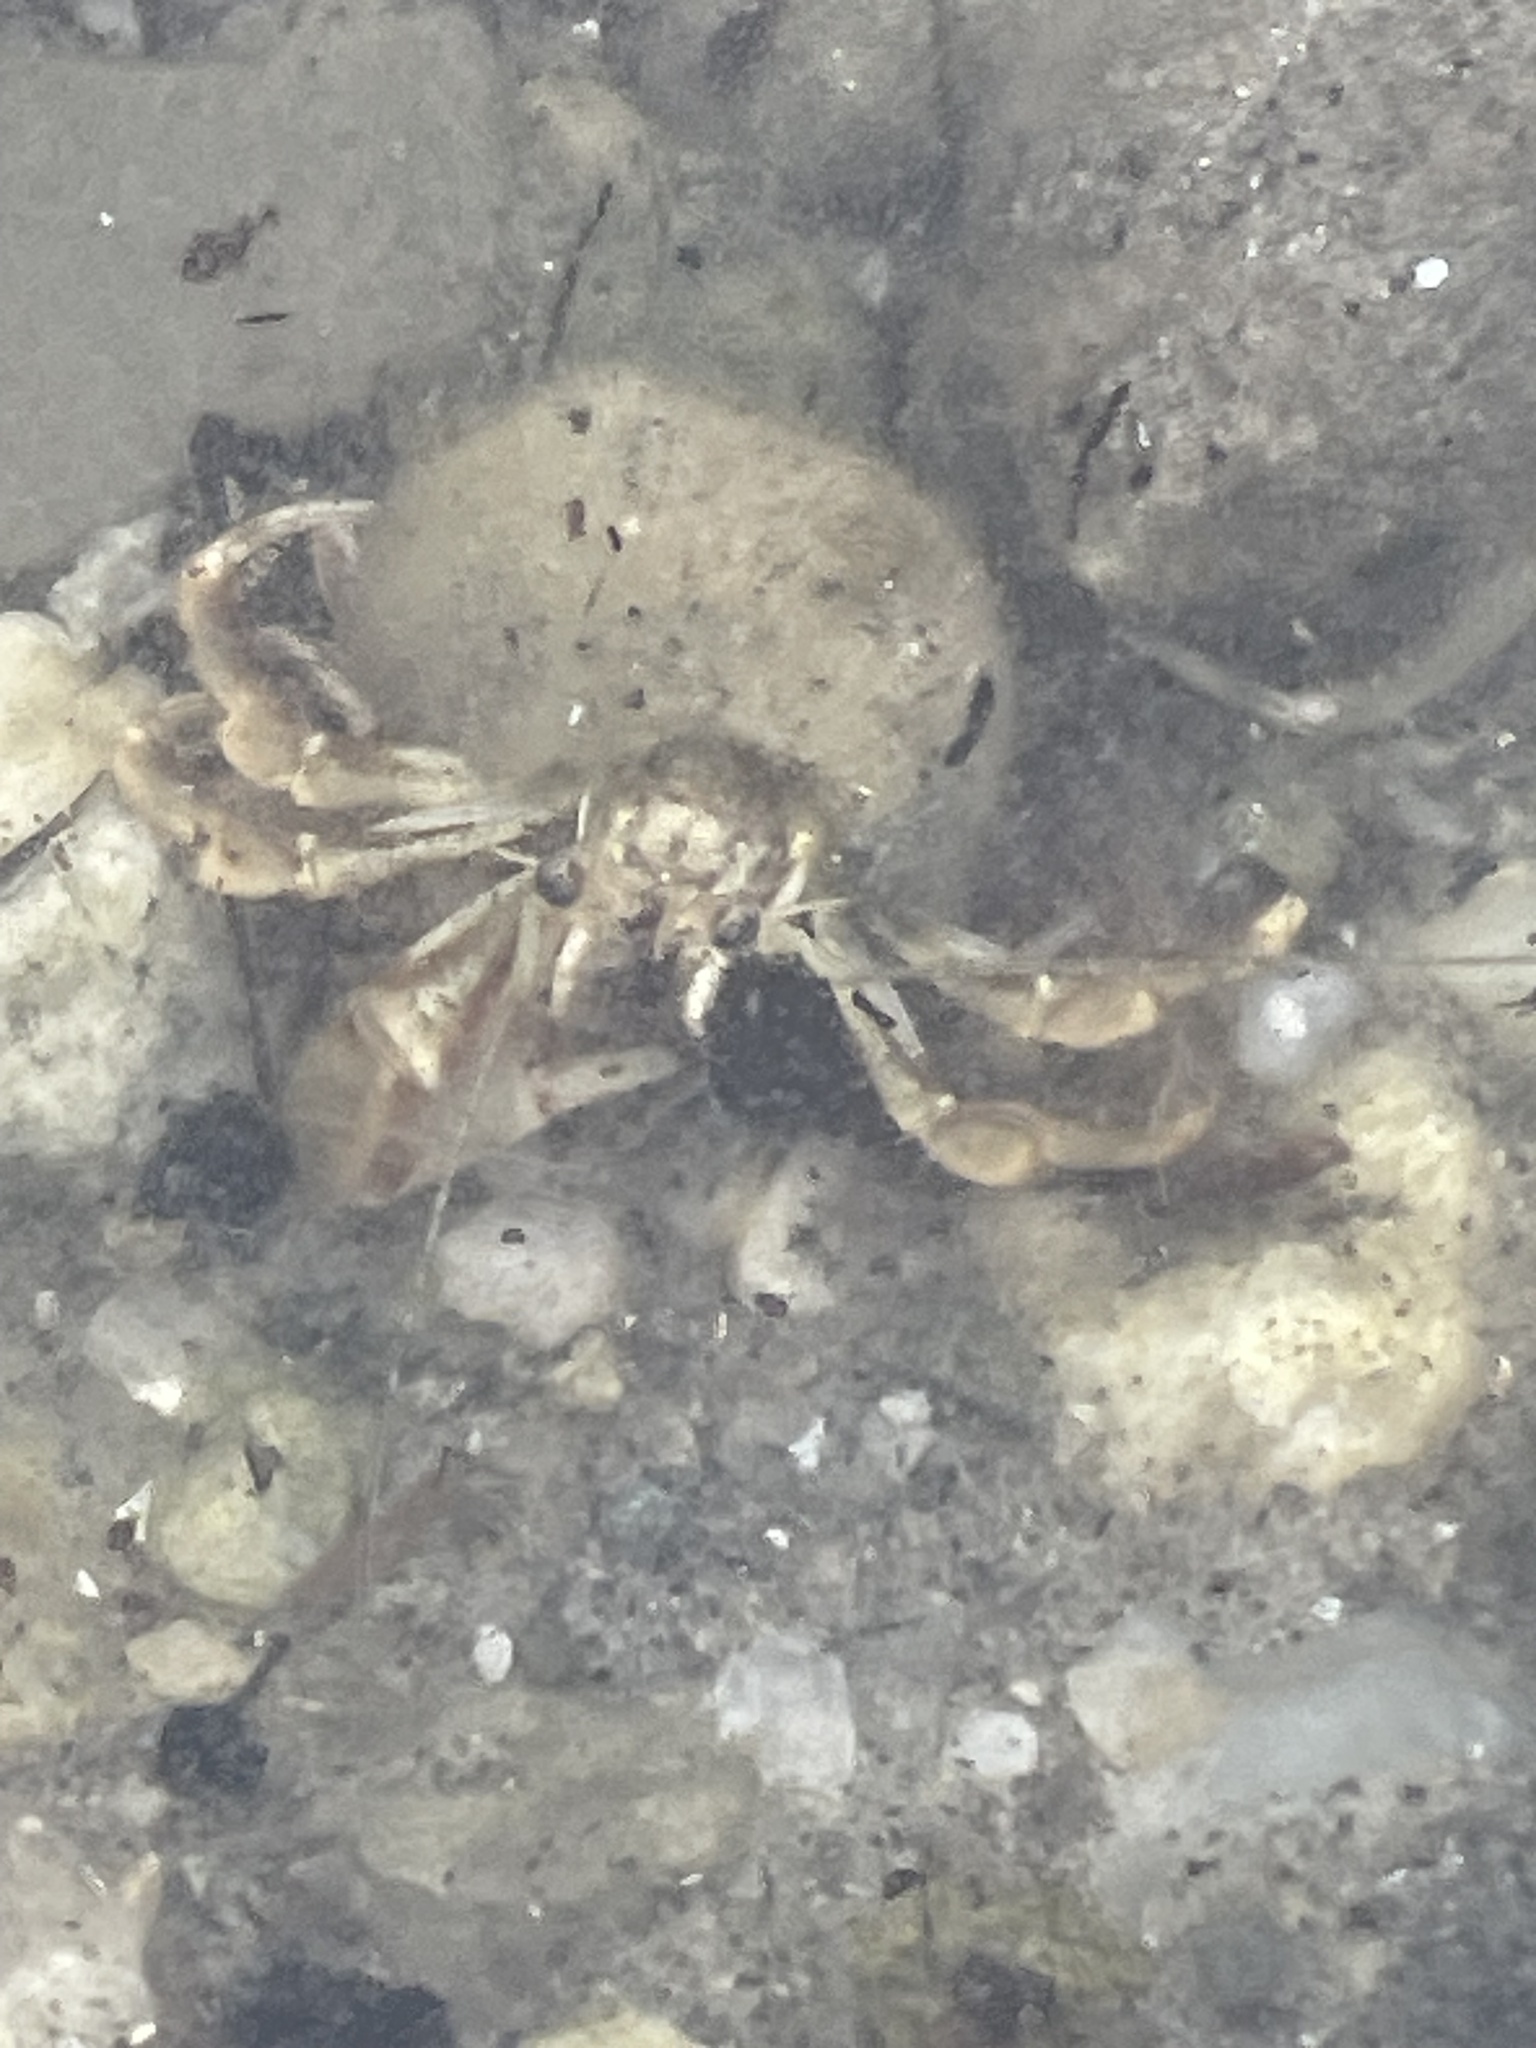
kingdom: Animalia
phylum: Arthropoda
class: Malacostraca
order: Decapoda
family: Paguridae
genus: Pagurus
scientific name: Pagurus longicarpus
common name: Long-armed hermit crab
